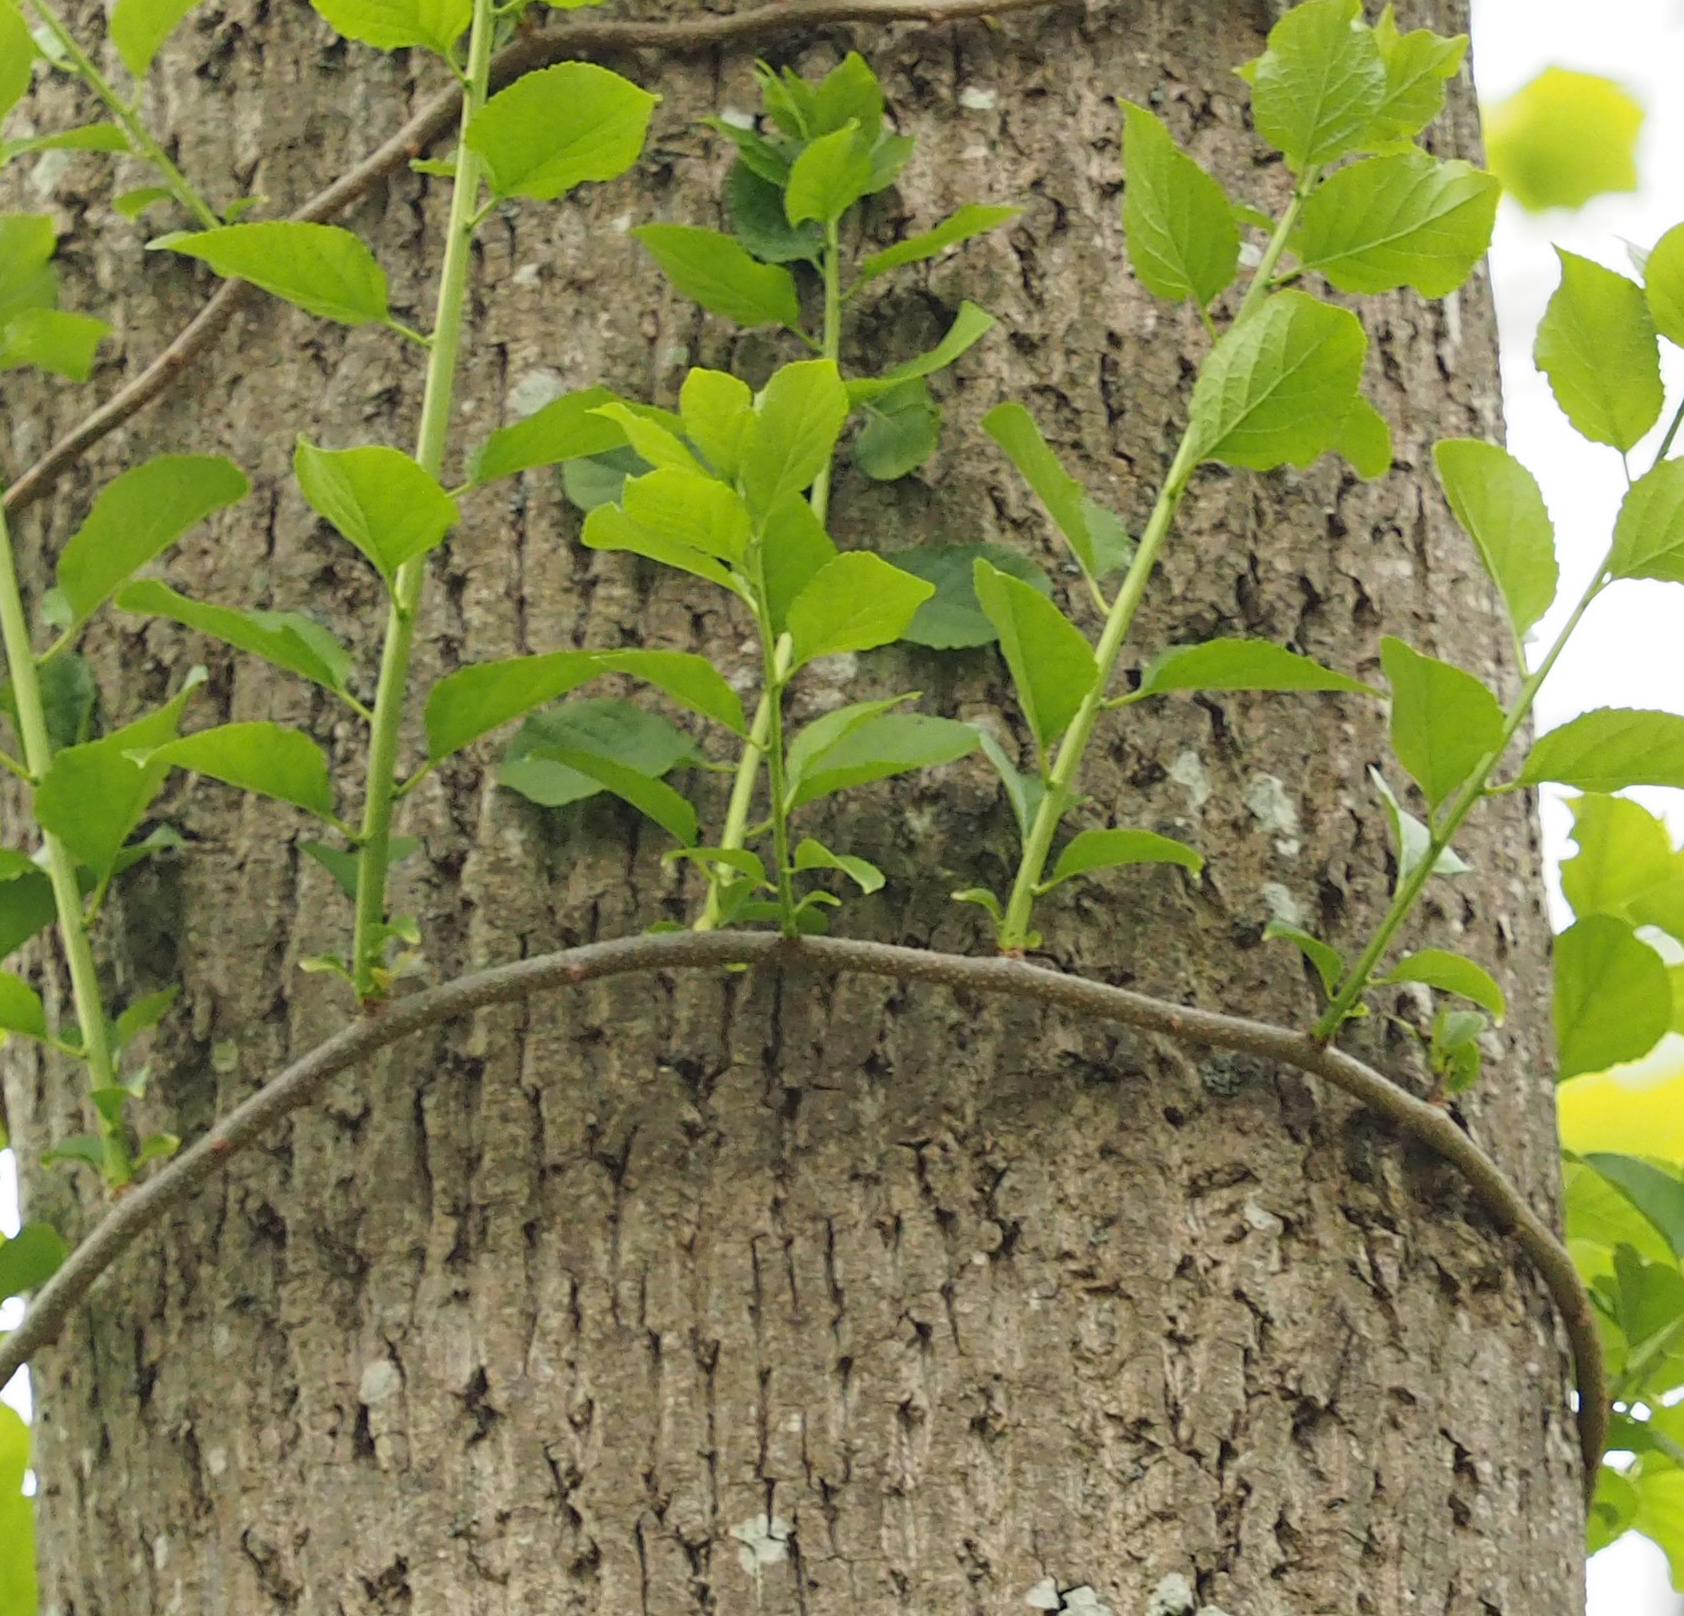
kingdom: Plantae
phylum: Tracheophyta
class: Magnoliopsida
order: Celastrales
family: Celastraceae
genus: Celastrus
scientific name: Celastrus orbiculatus
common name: Oriental bittersweet
